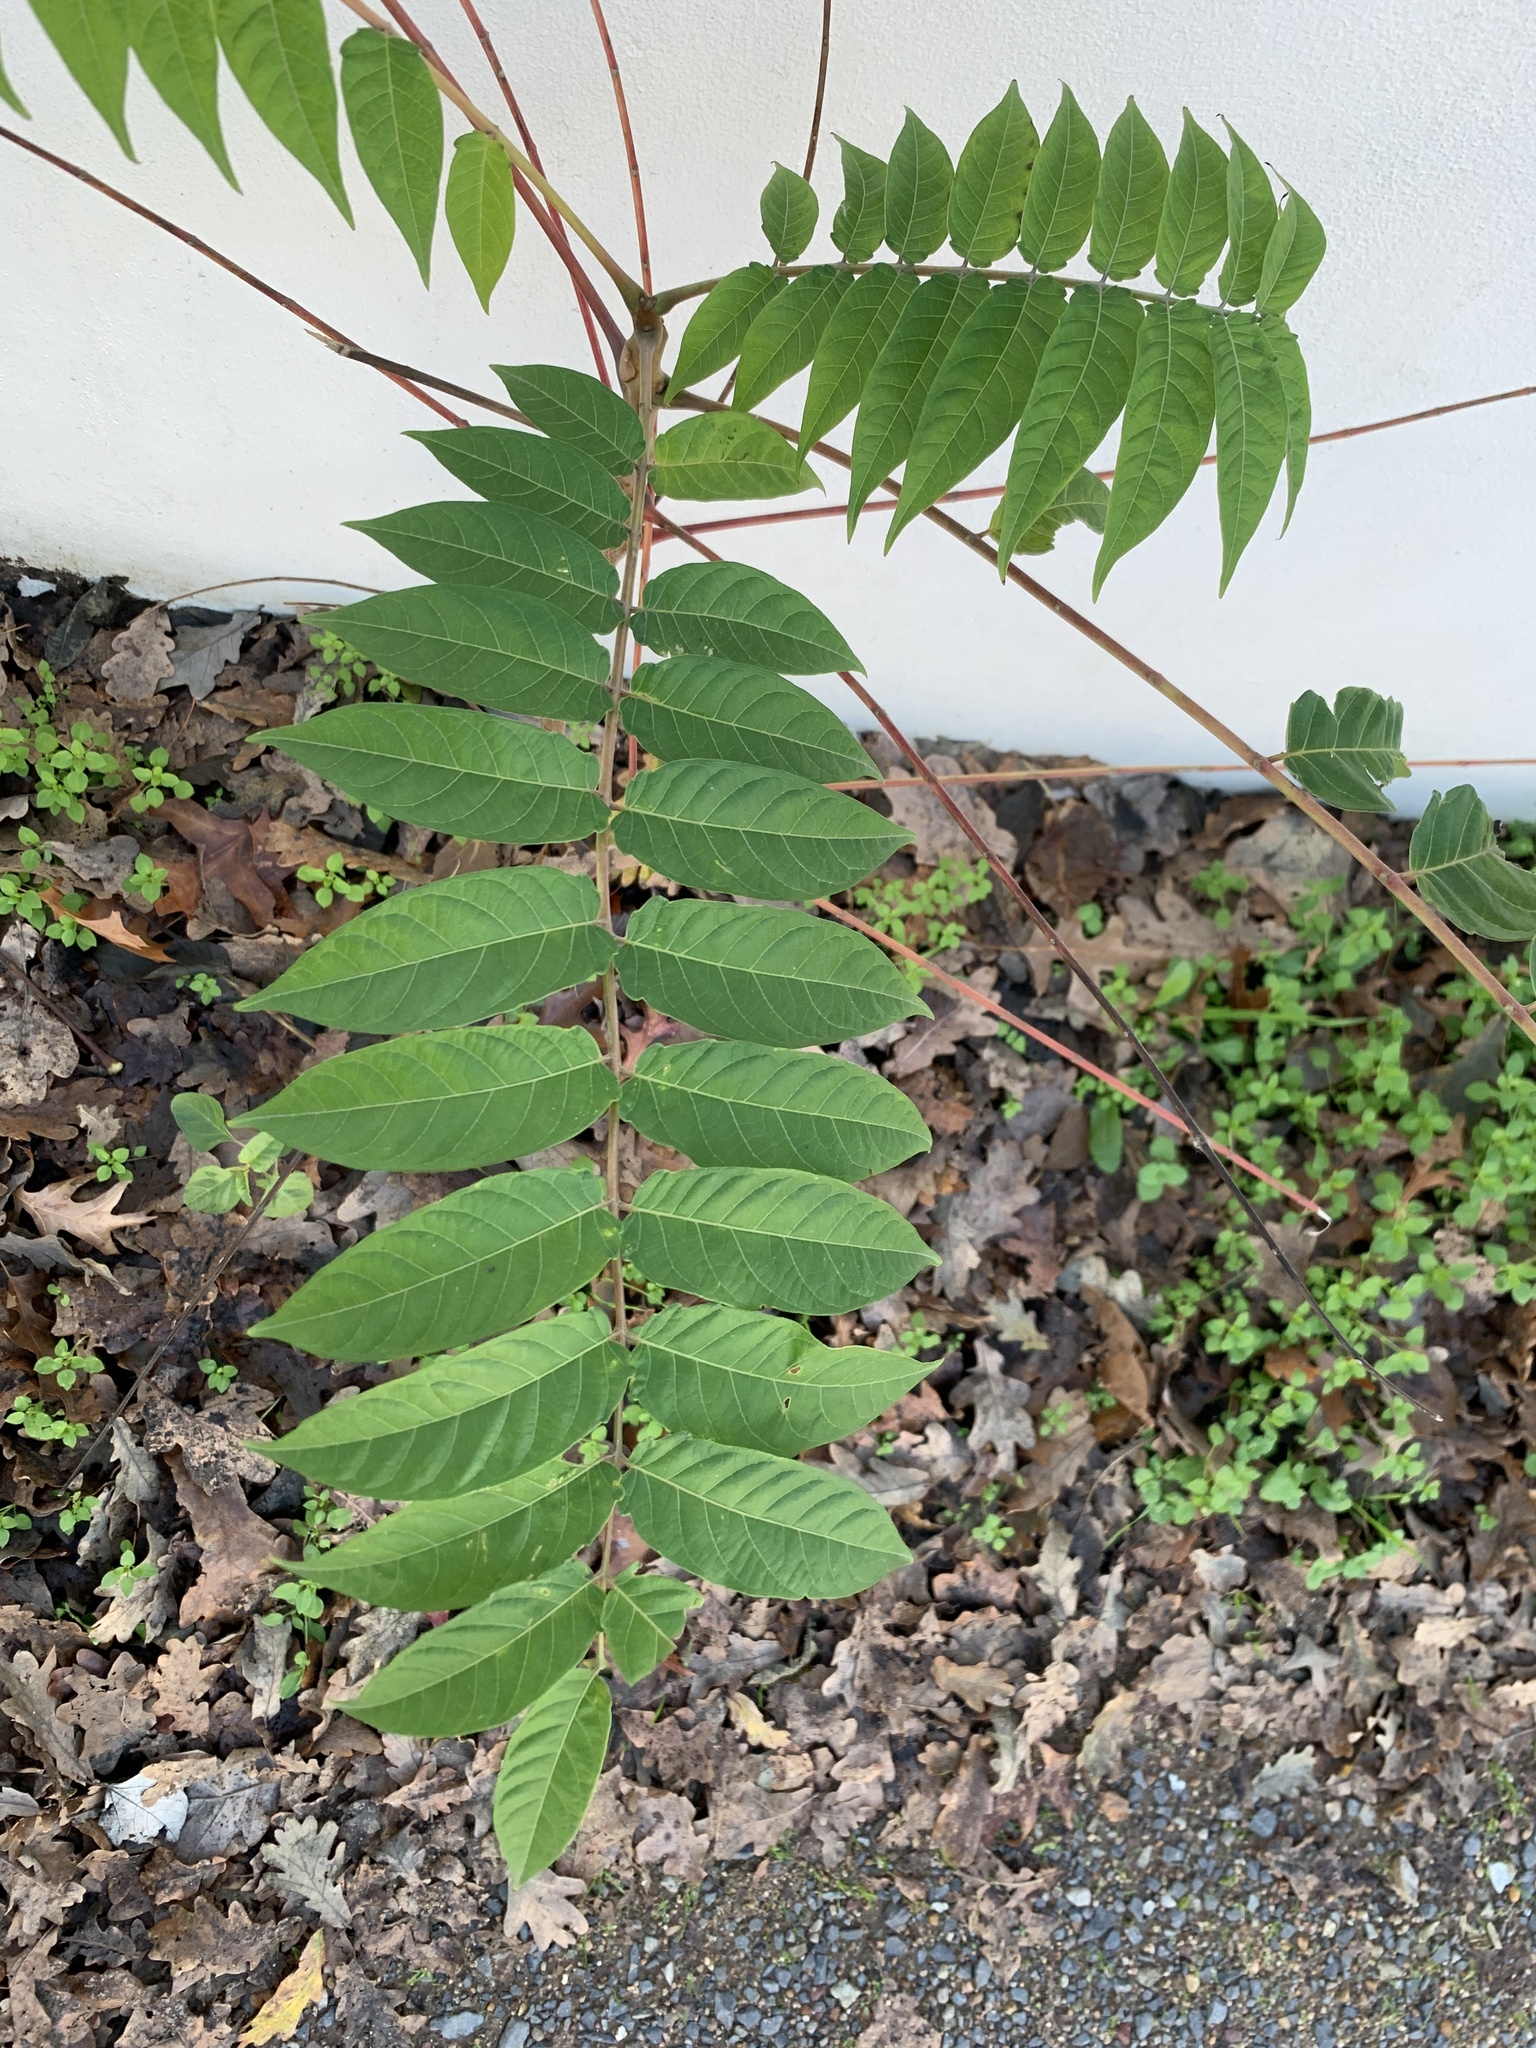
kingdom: Plantae
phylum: Tracheophyta
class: Magnoliopsida
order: Sapindales
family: Simaroubaceae
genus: Ailanthus
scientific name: Ailanthus altissima
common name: Tree-of-heaven
